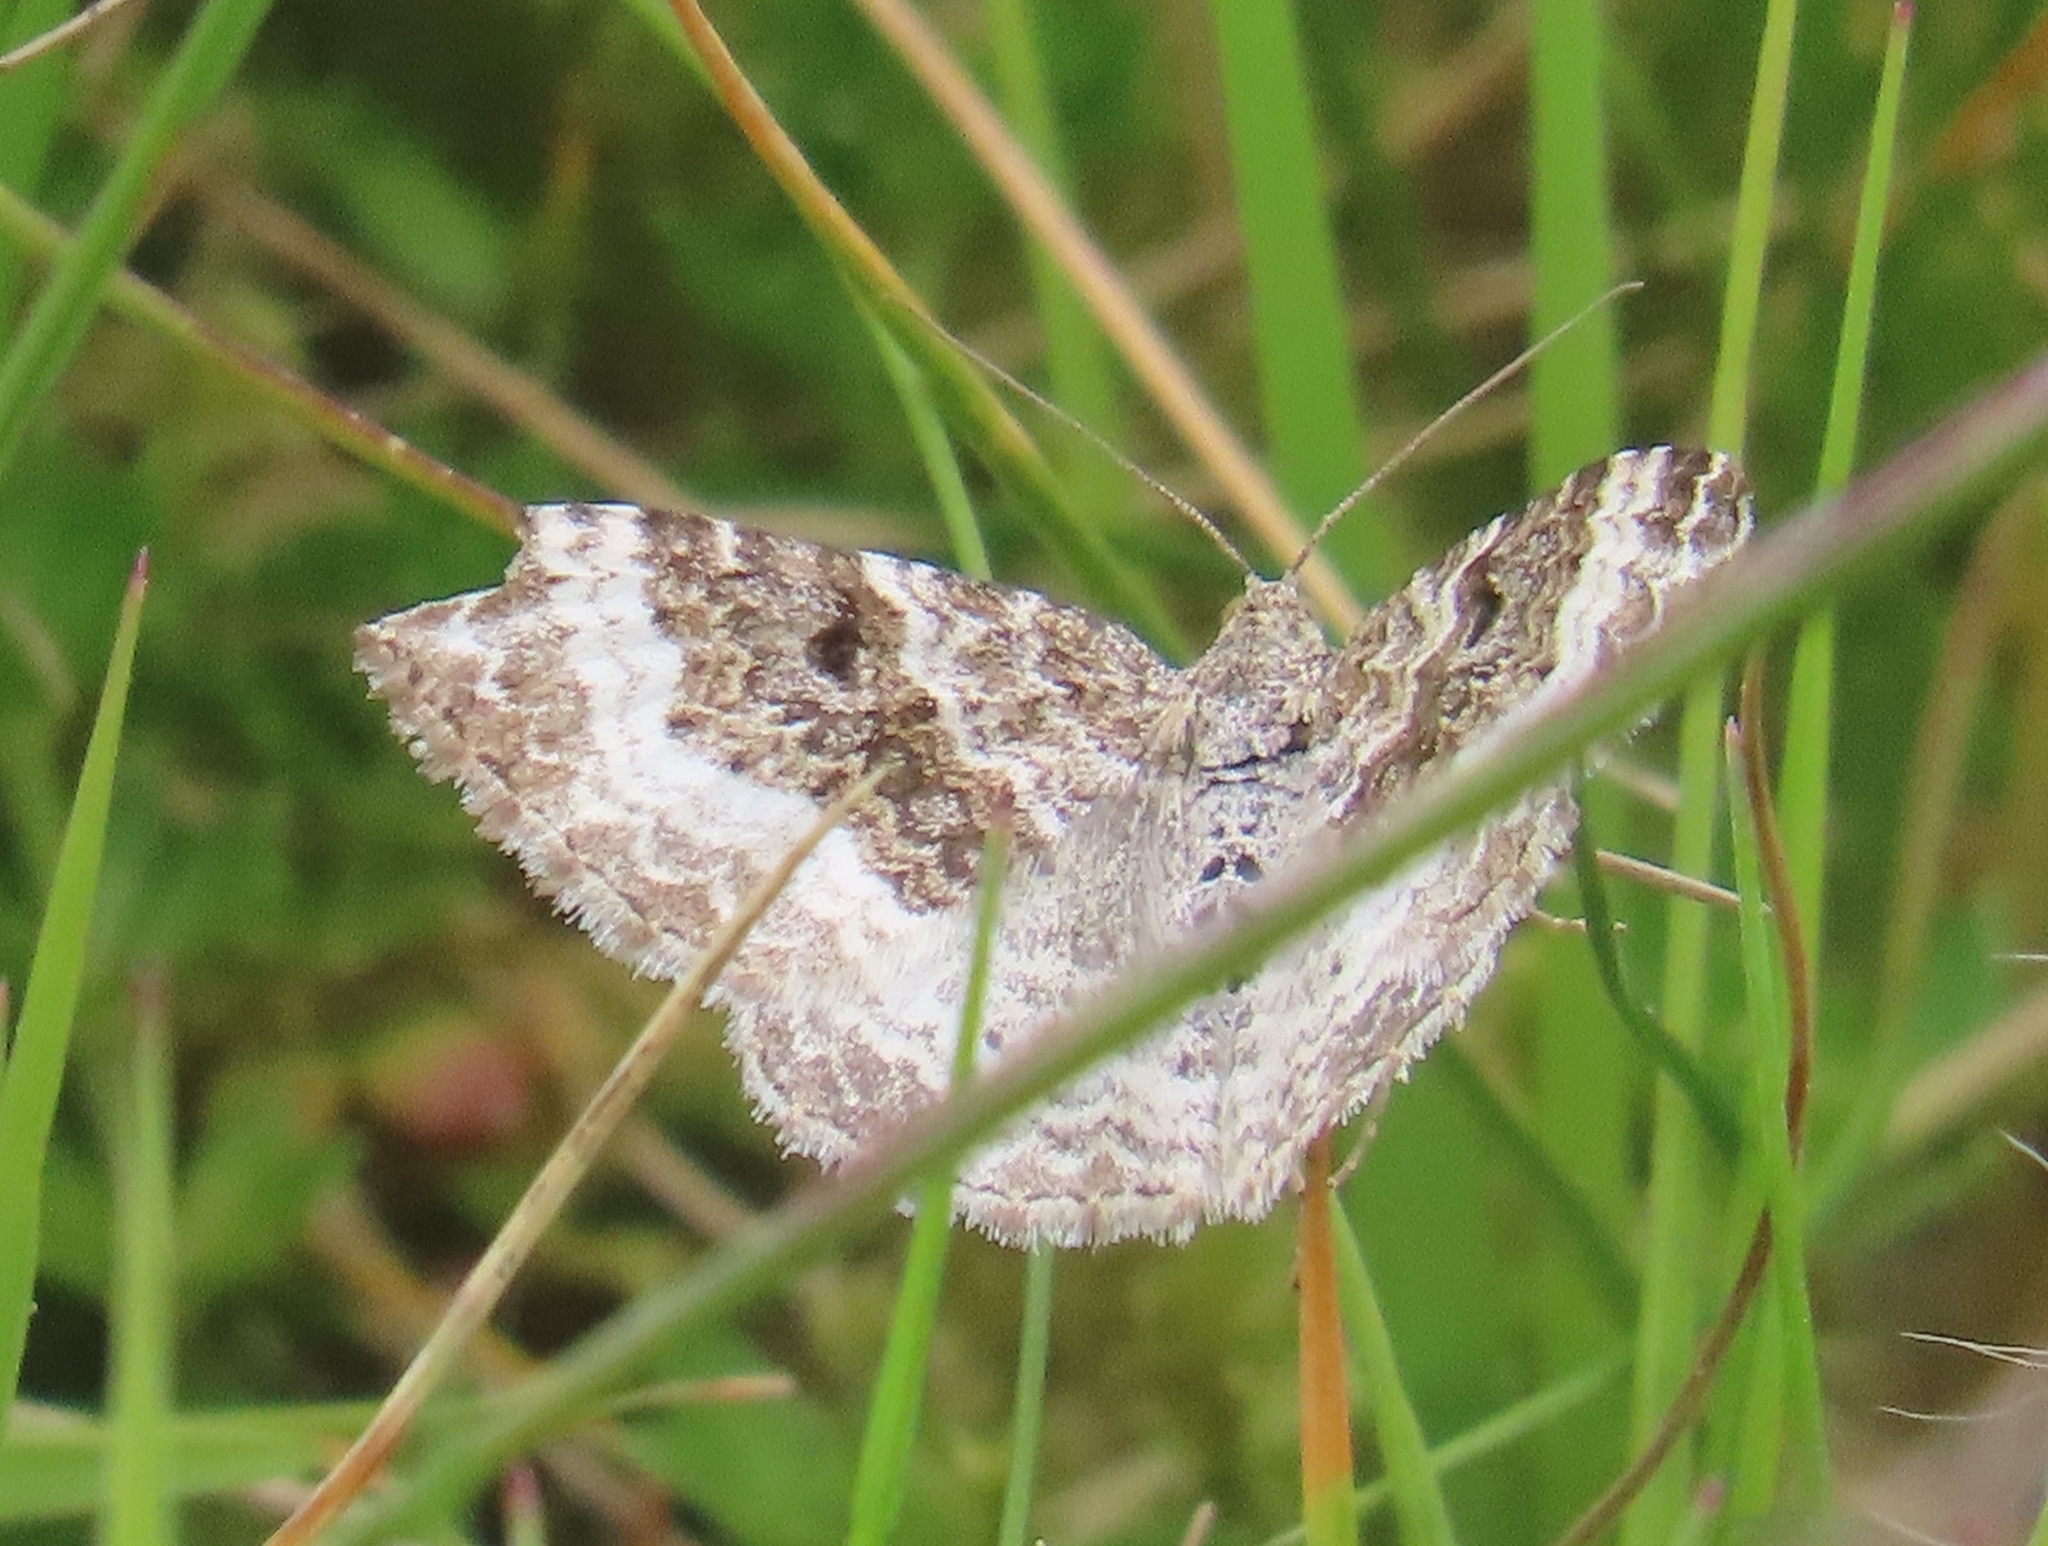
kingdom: Animalia
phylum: Arthropoda
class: Insecta
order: Lepidoptera
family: Geometridae
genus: Epirrhoe
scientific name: Epirrhoe alternata
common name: Common carpet
